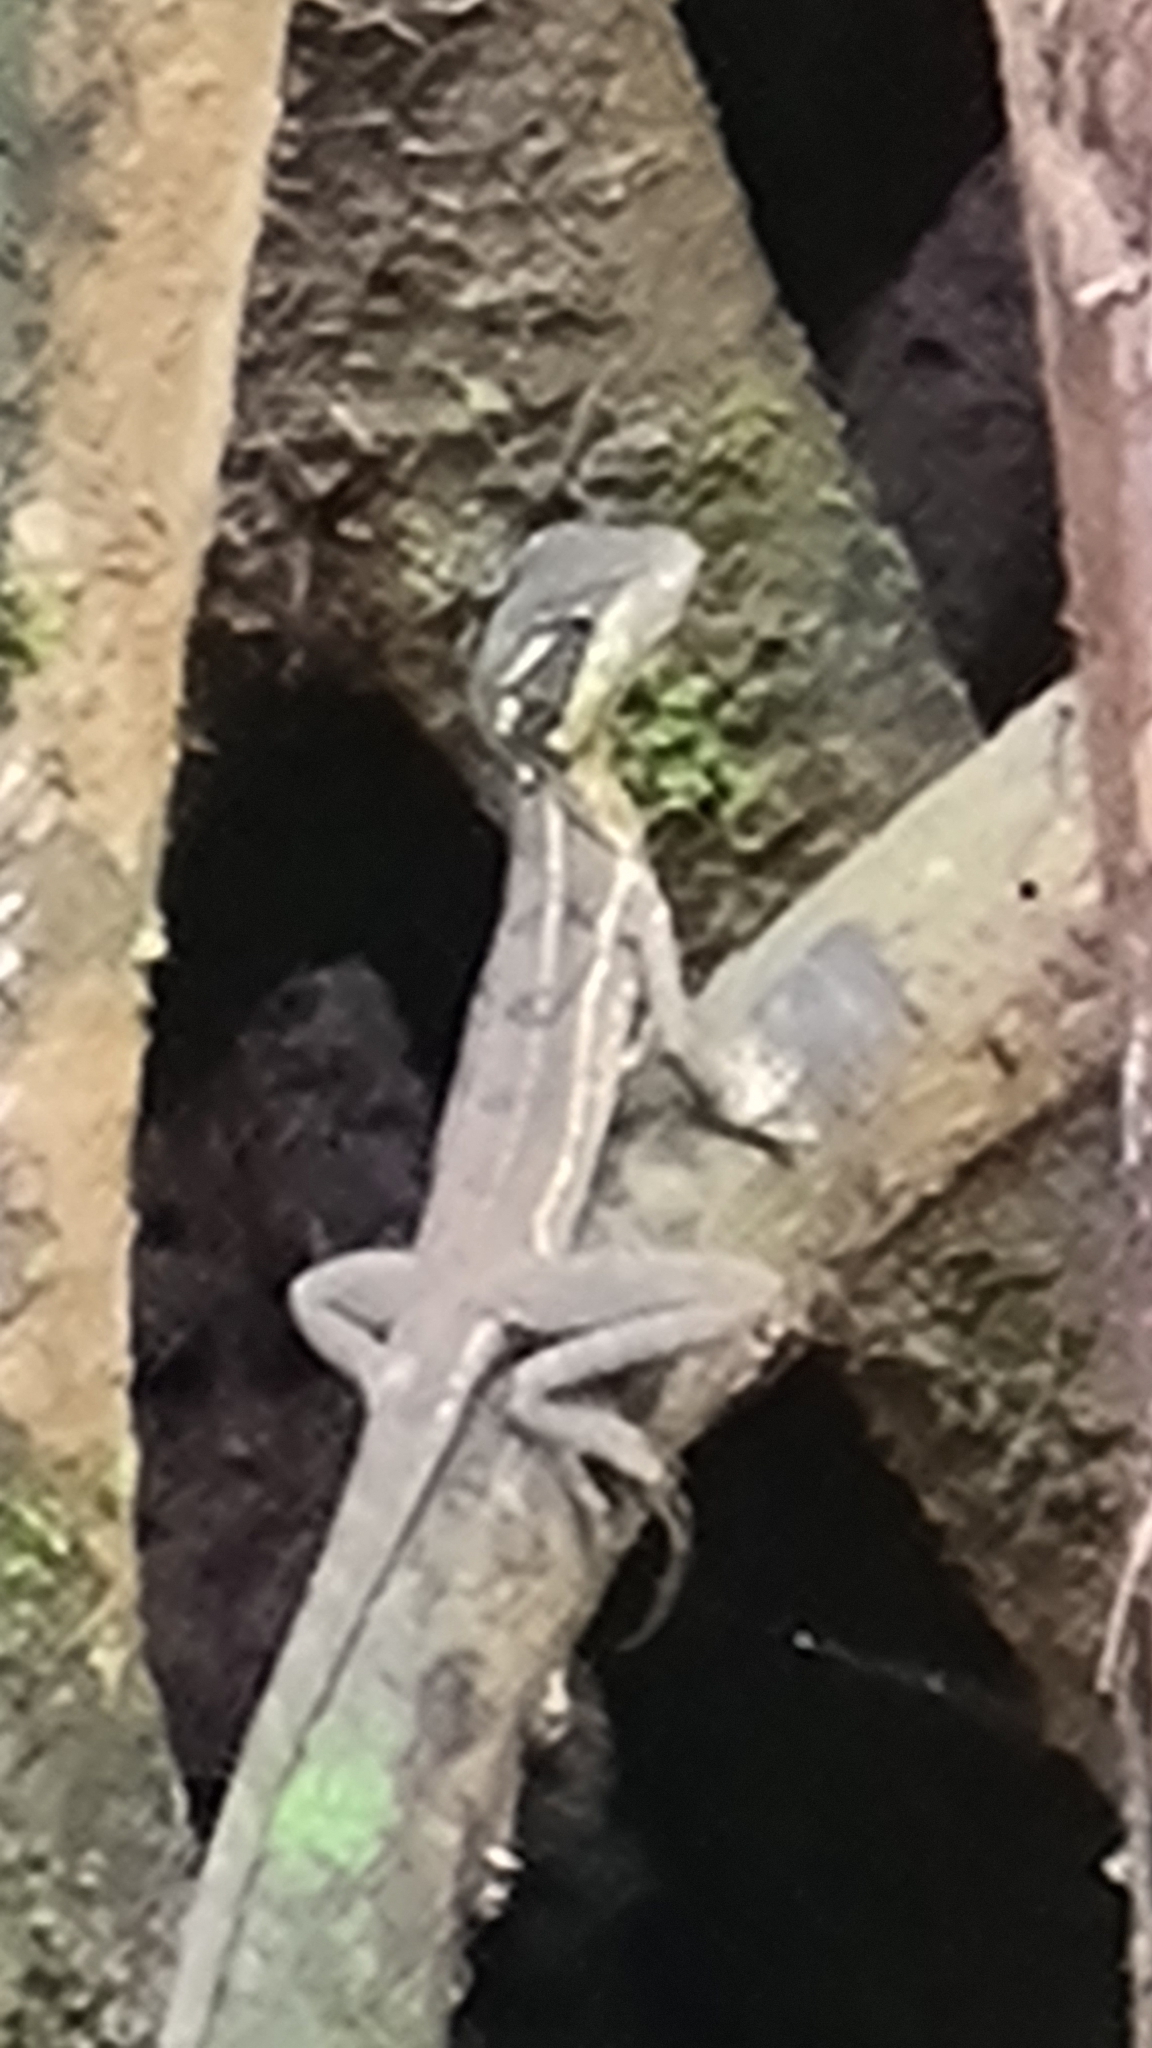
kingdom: Animalia
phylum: Chordata
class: Squamata
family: Corytophanidae
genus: Basiliscus
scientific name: Basiliscus basiliscus
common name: Common basilisk
